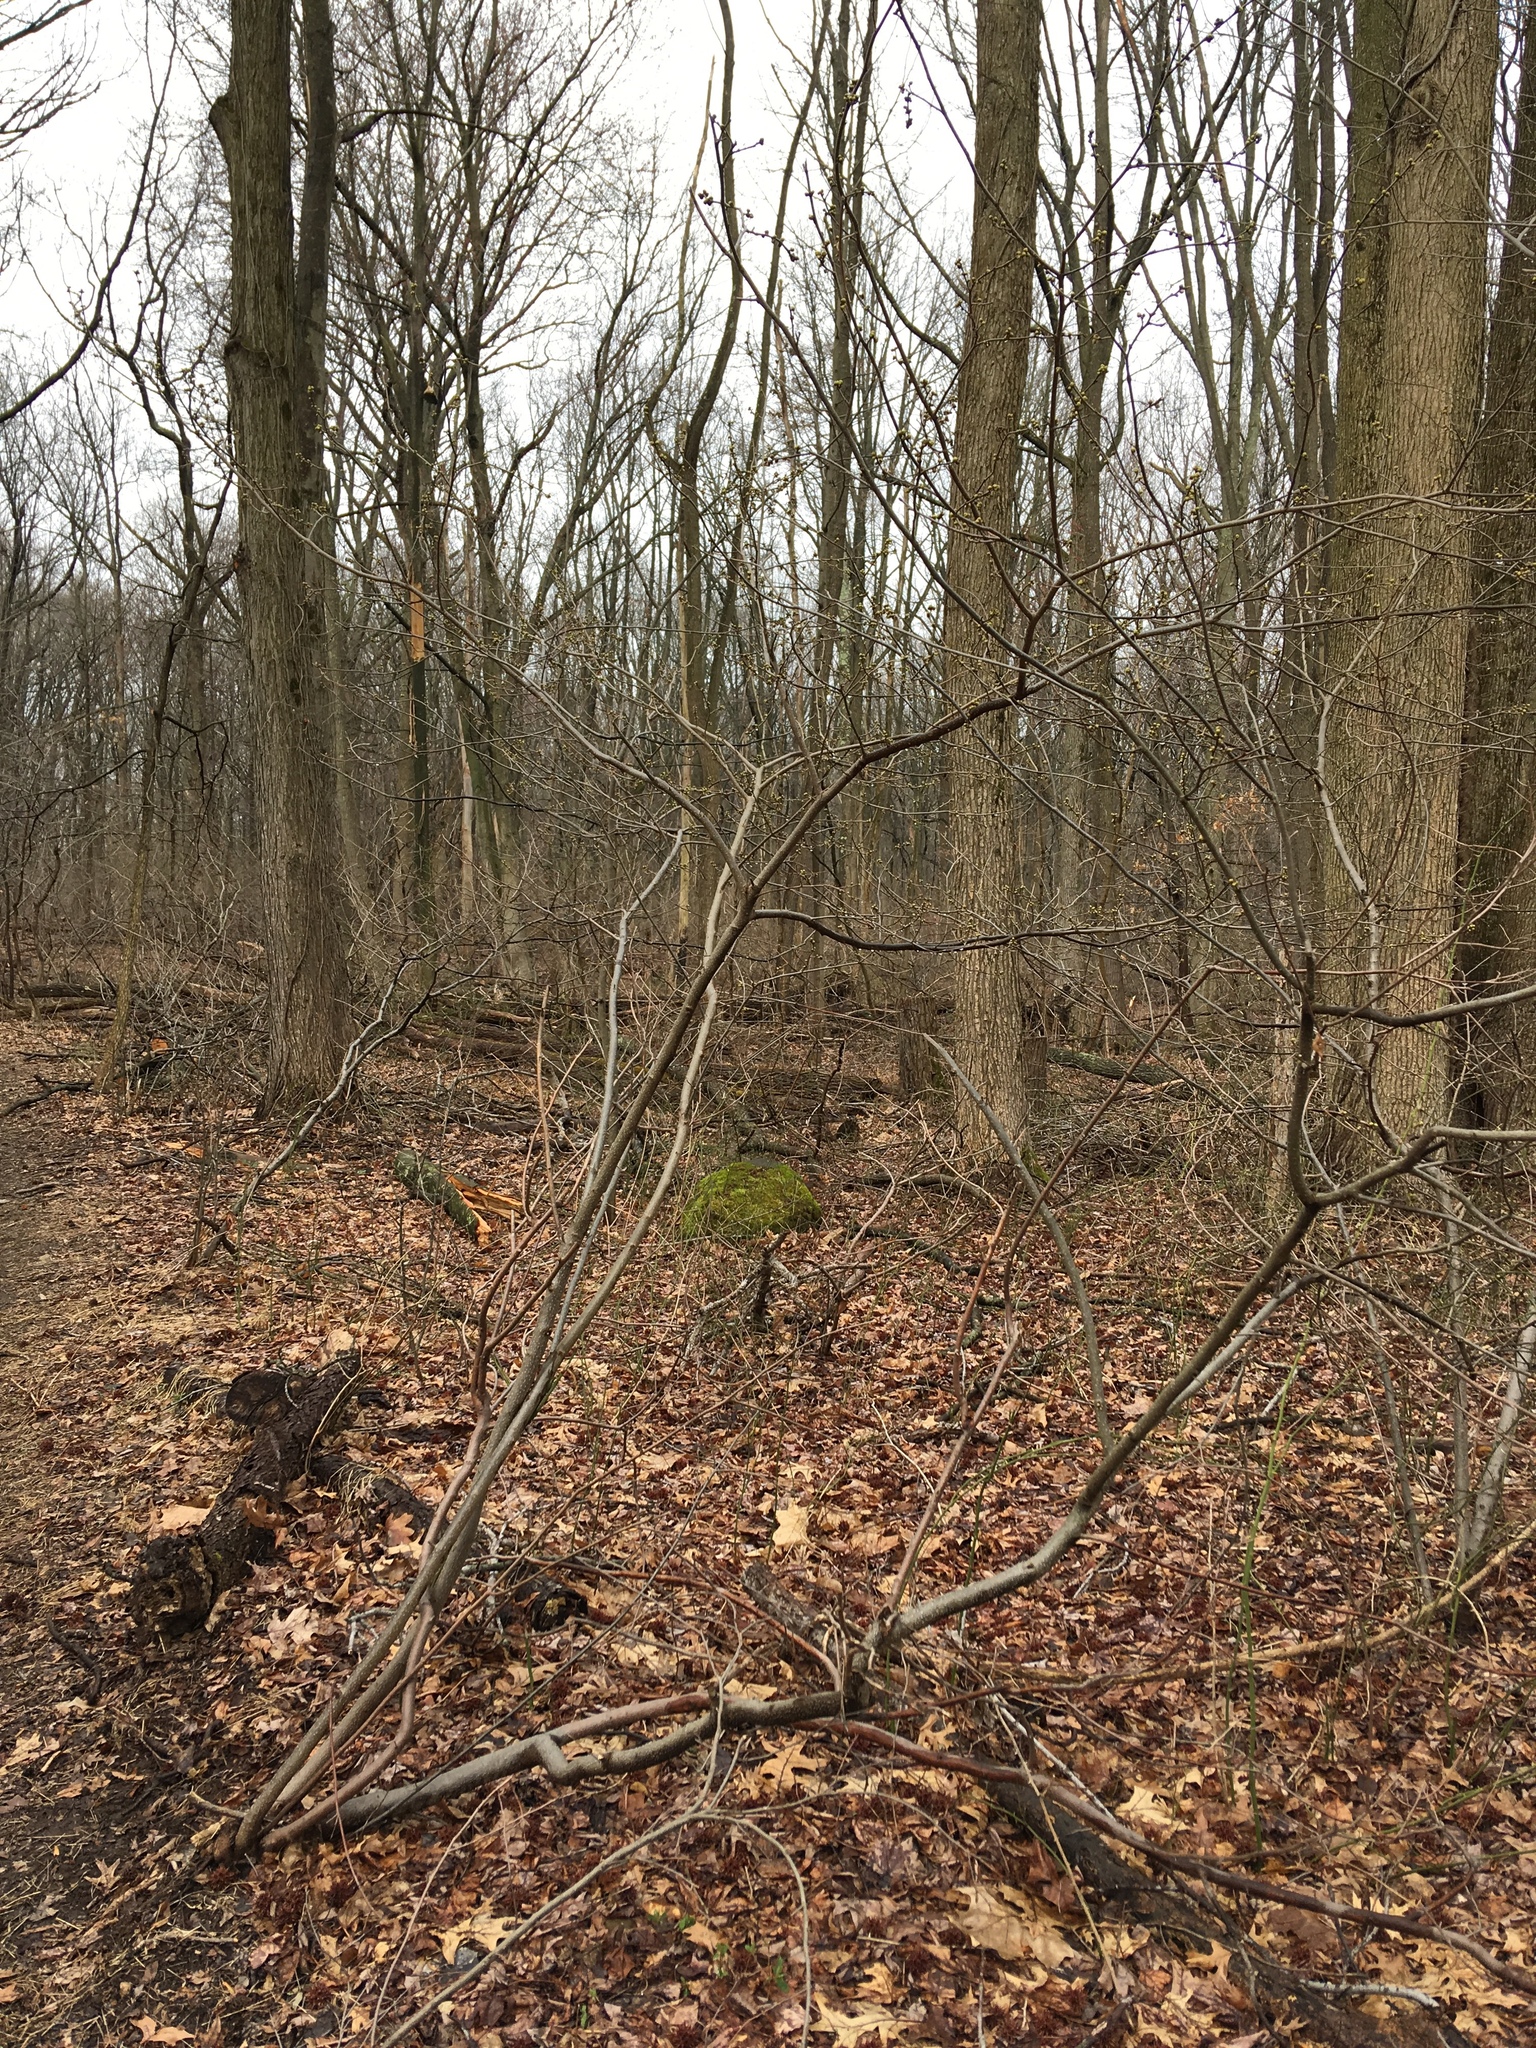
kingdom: Plantae
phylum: Tracheophyta
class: Magnoliopsida
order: Laurales
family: Lauraceae
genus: Lindera
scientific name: Lindera benzoin
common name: Spicebush
